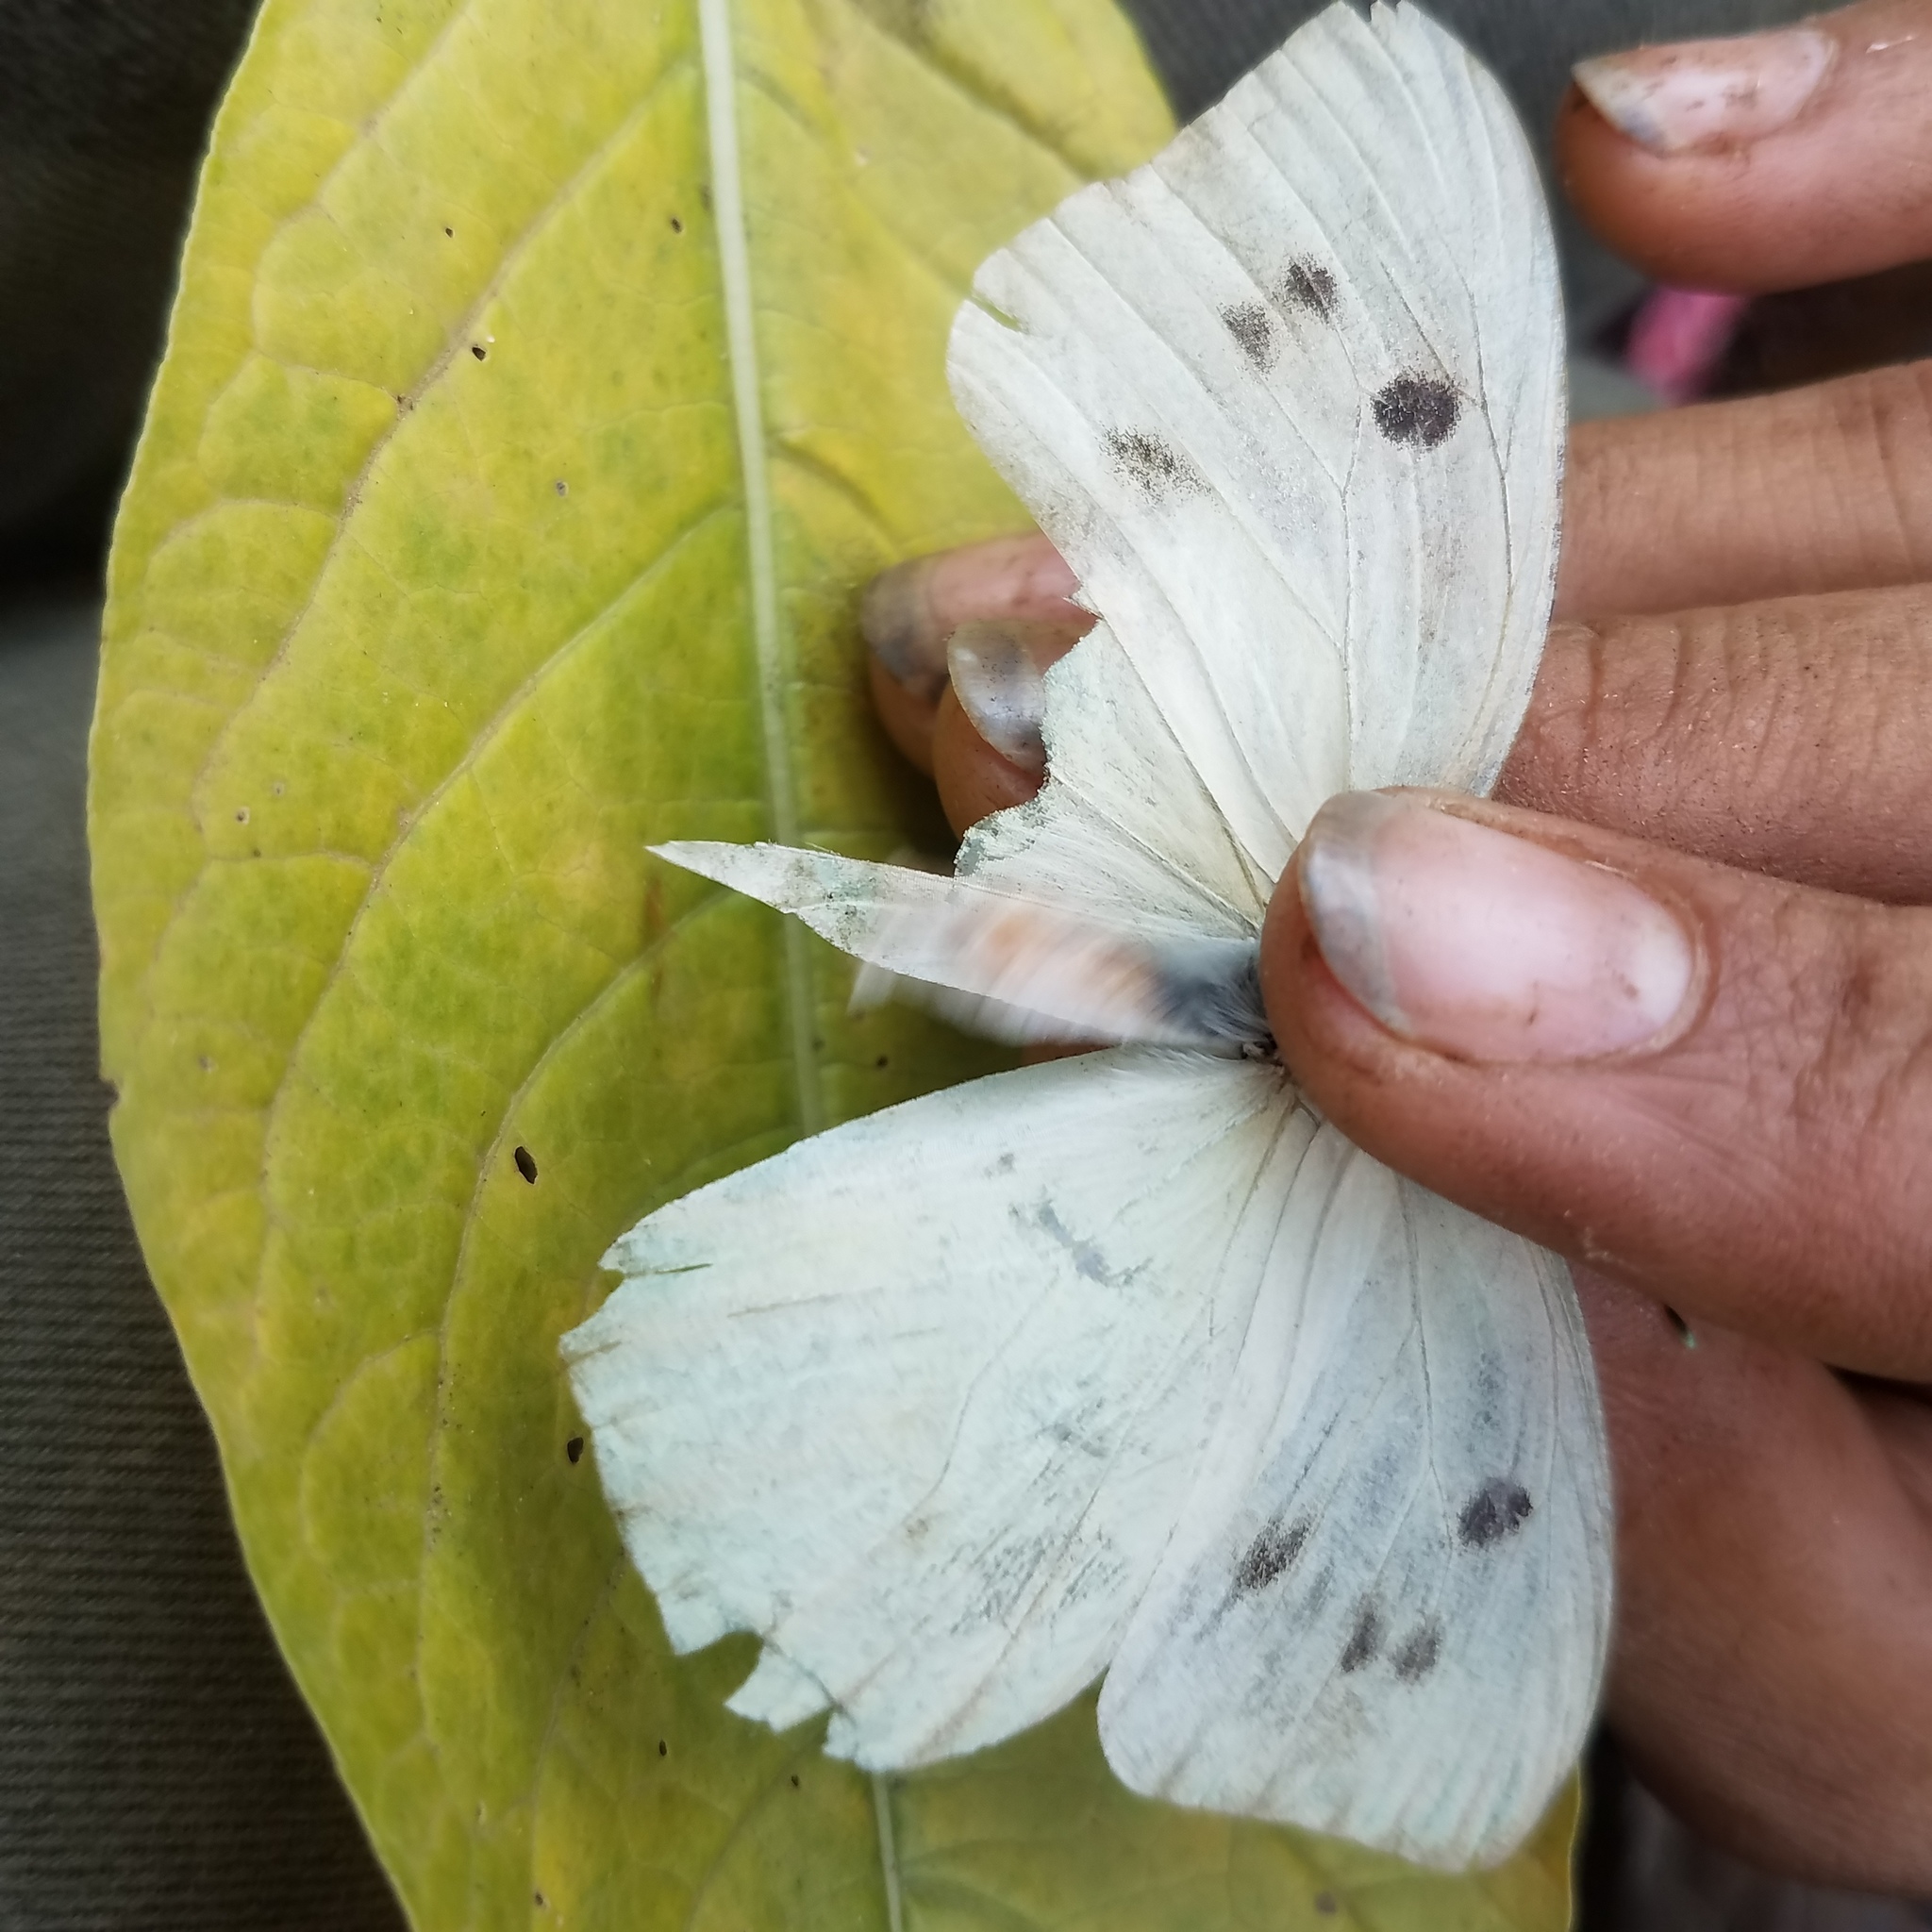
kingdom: Animalia
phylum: Arthropoda
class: Insecta
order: Lepidoptera
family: Pieridae
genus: Ganyra
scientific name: Ganyra josephina
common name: Giant white
